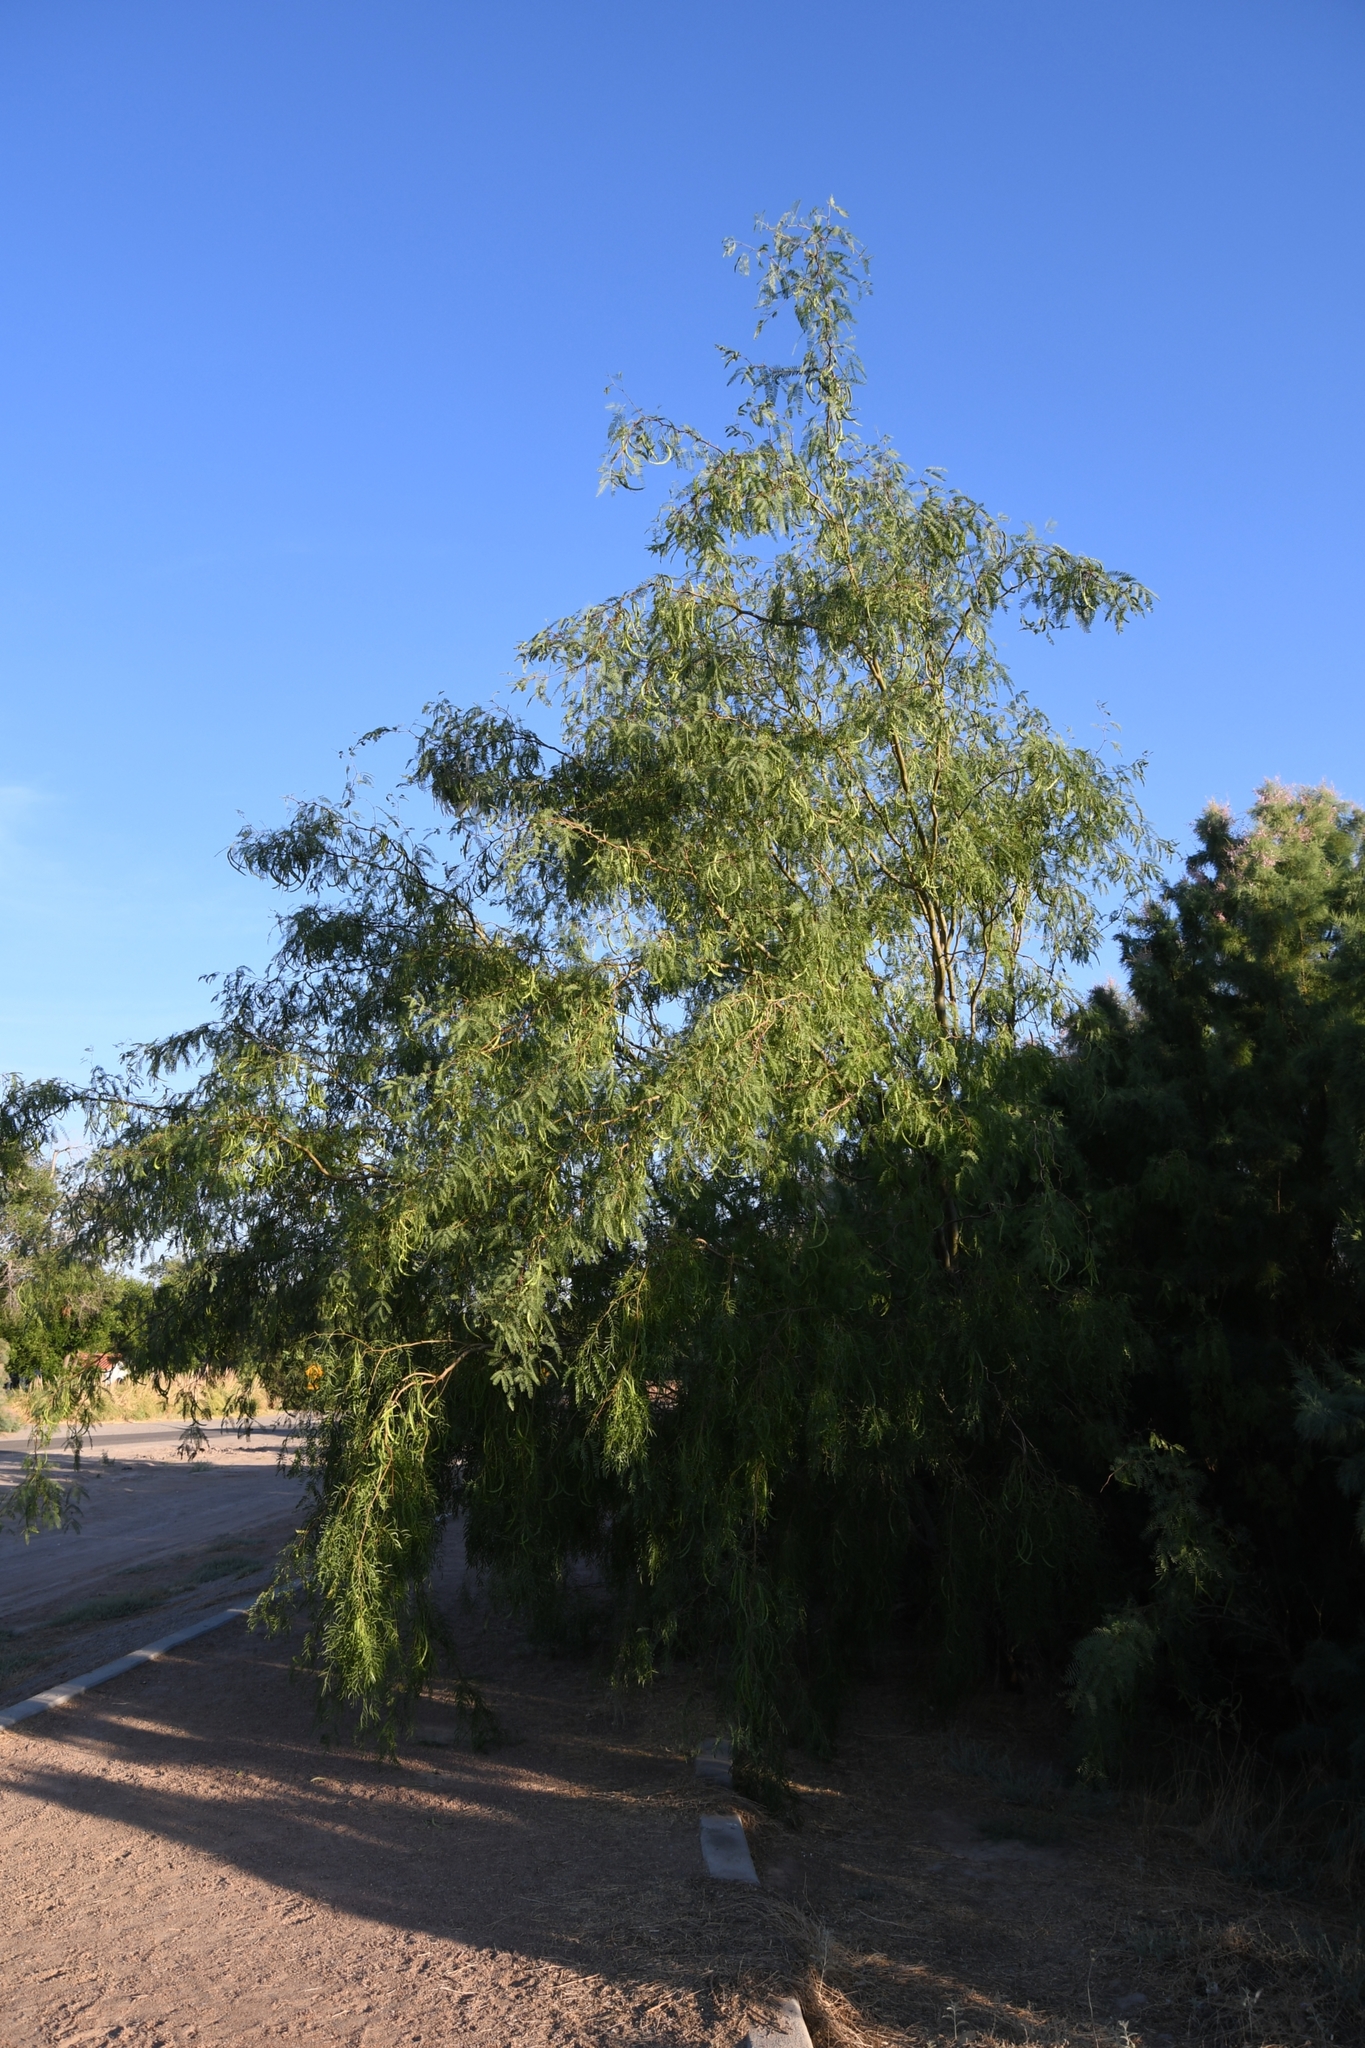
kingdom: Plantae
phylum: Tracheophyta
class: Magnoliopsida
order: Fabales
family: Fabaceae
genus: Prosopis
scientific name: Prosopis glandulosa
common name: Honey mesquite
